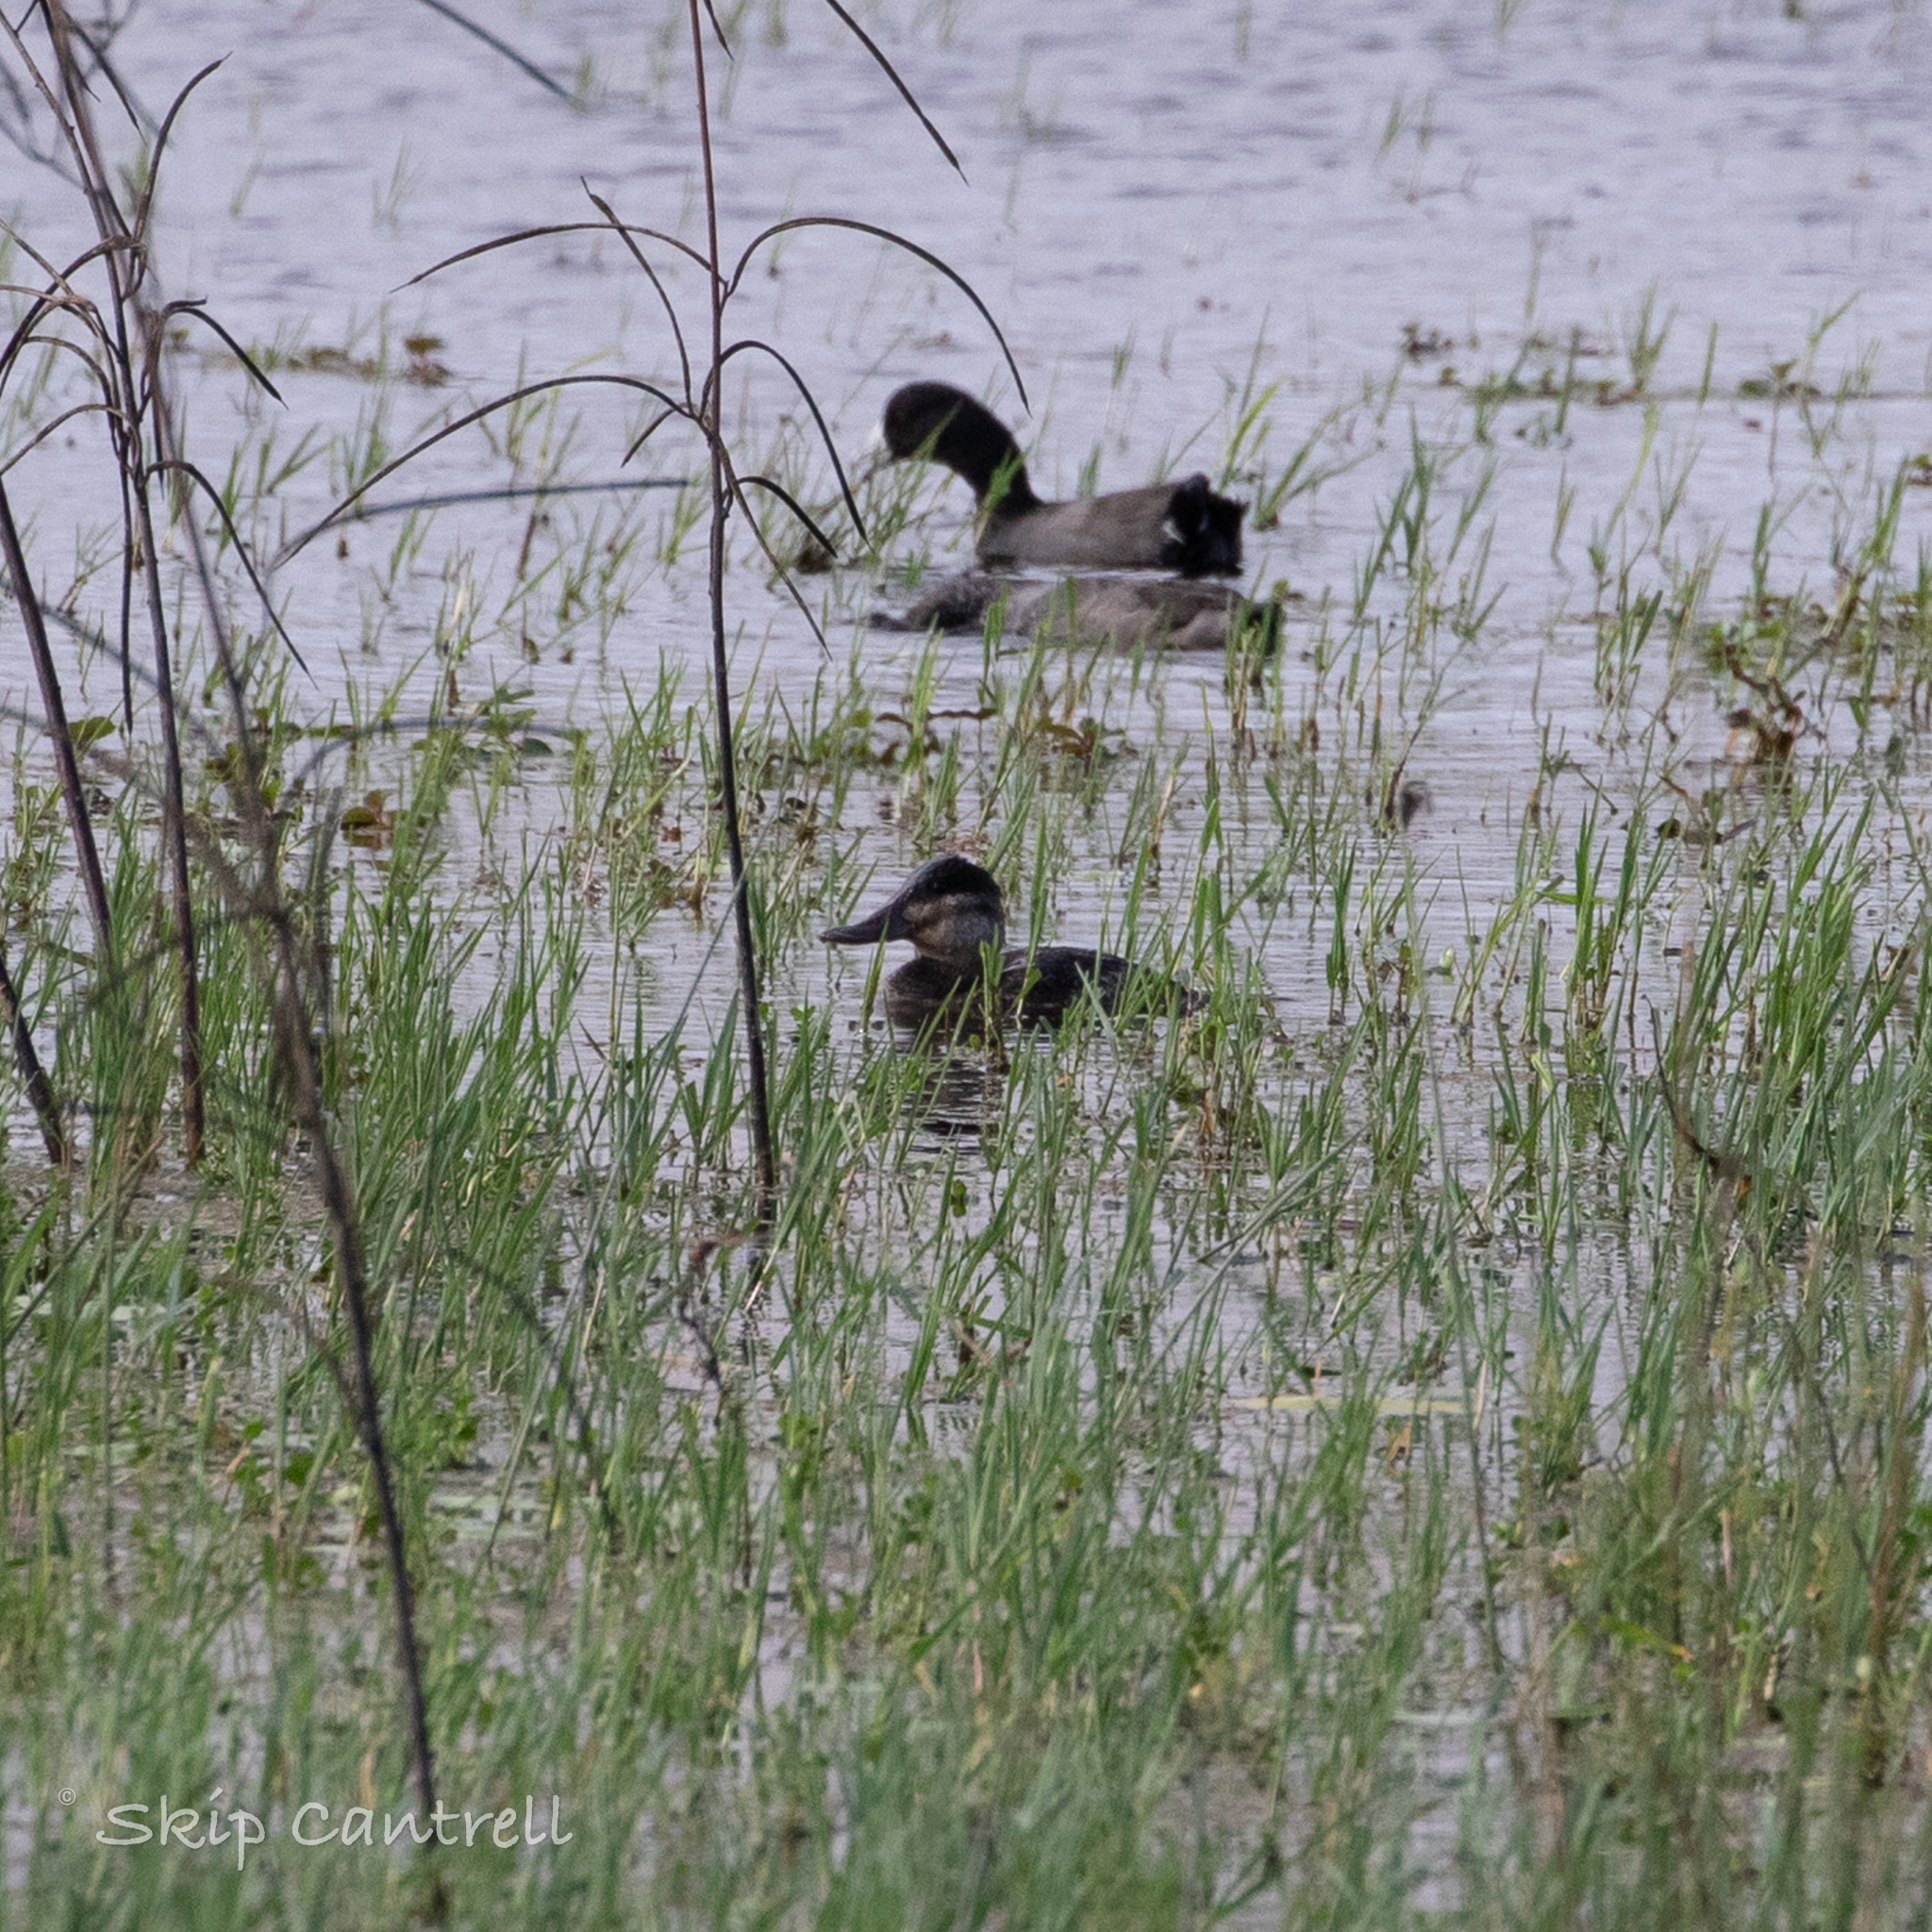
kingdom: Animalia
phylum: Chordata
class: Aves
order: Anseriformes
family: Anatidae
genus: Oxyura
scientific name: Oxyura jamaicensis
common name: Ruddy duck
